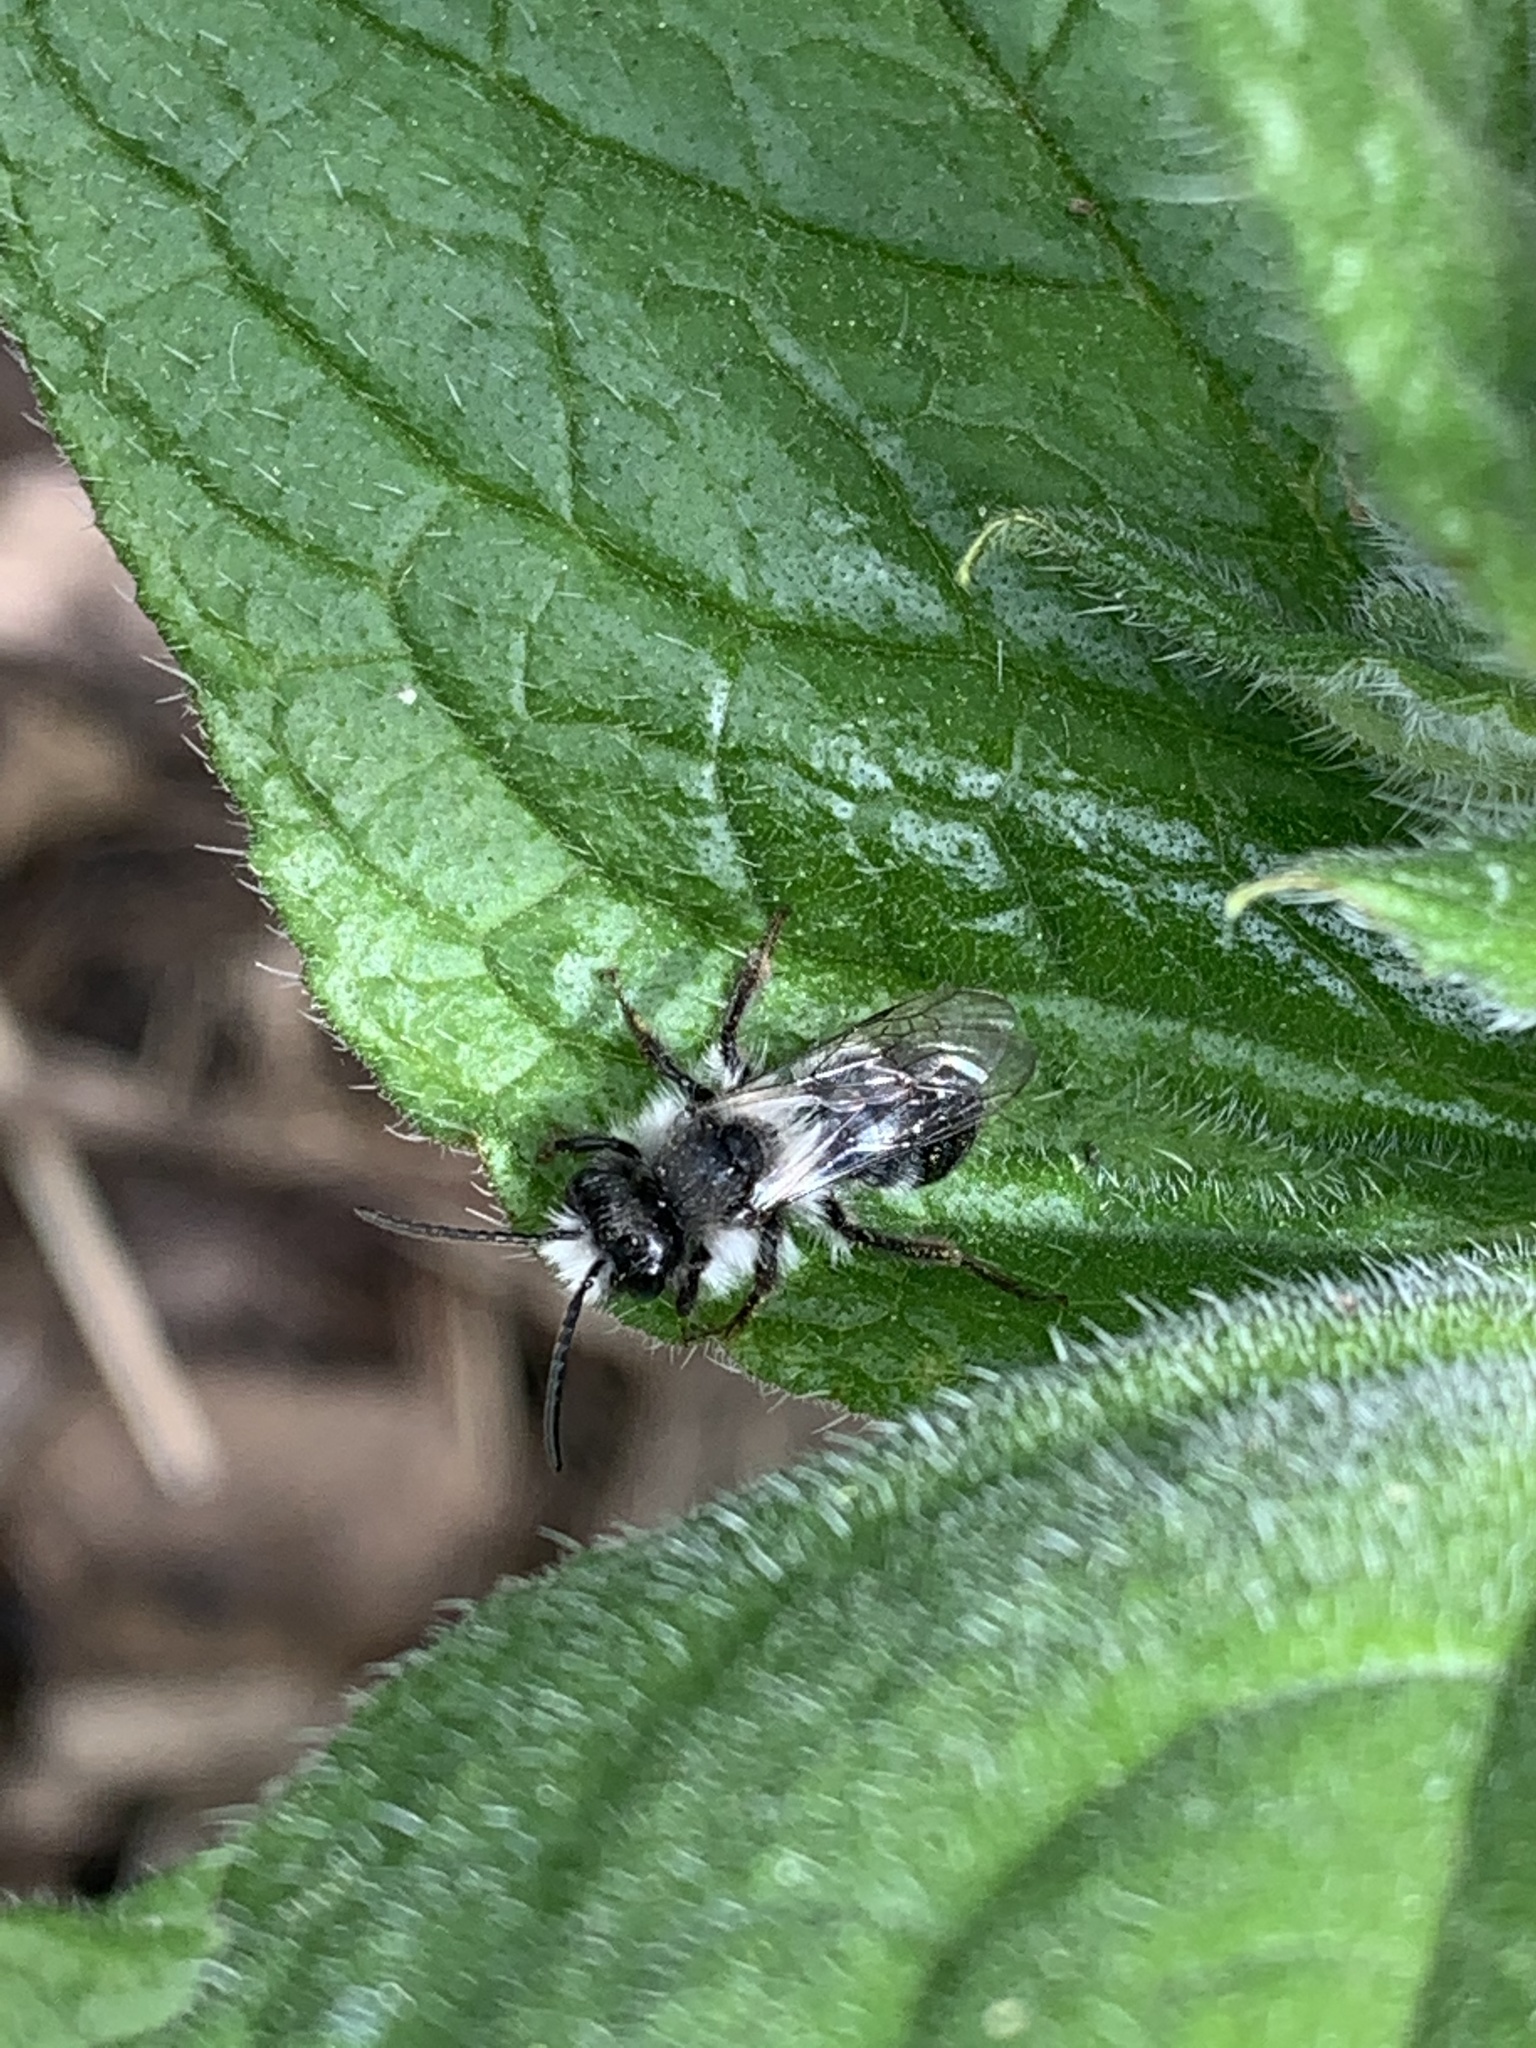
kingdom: Animalia
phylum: Arthropoda
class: Insecta
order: Hymenoptera
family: Andrenidae
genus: Andrena
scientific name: Andrena cineraria
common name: Ashy mining bee
